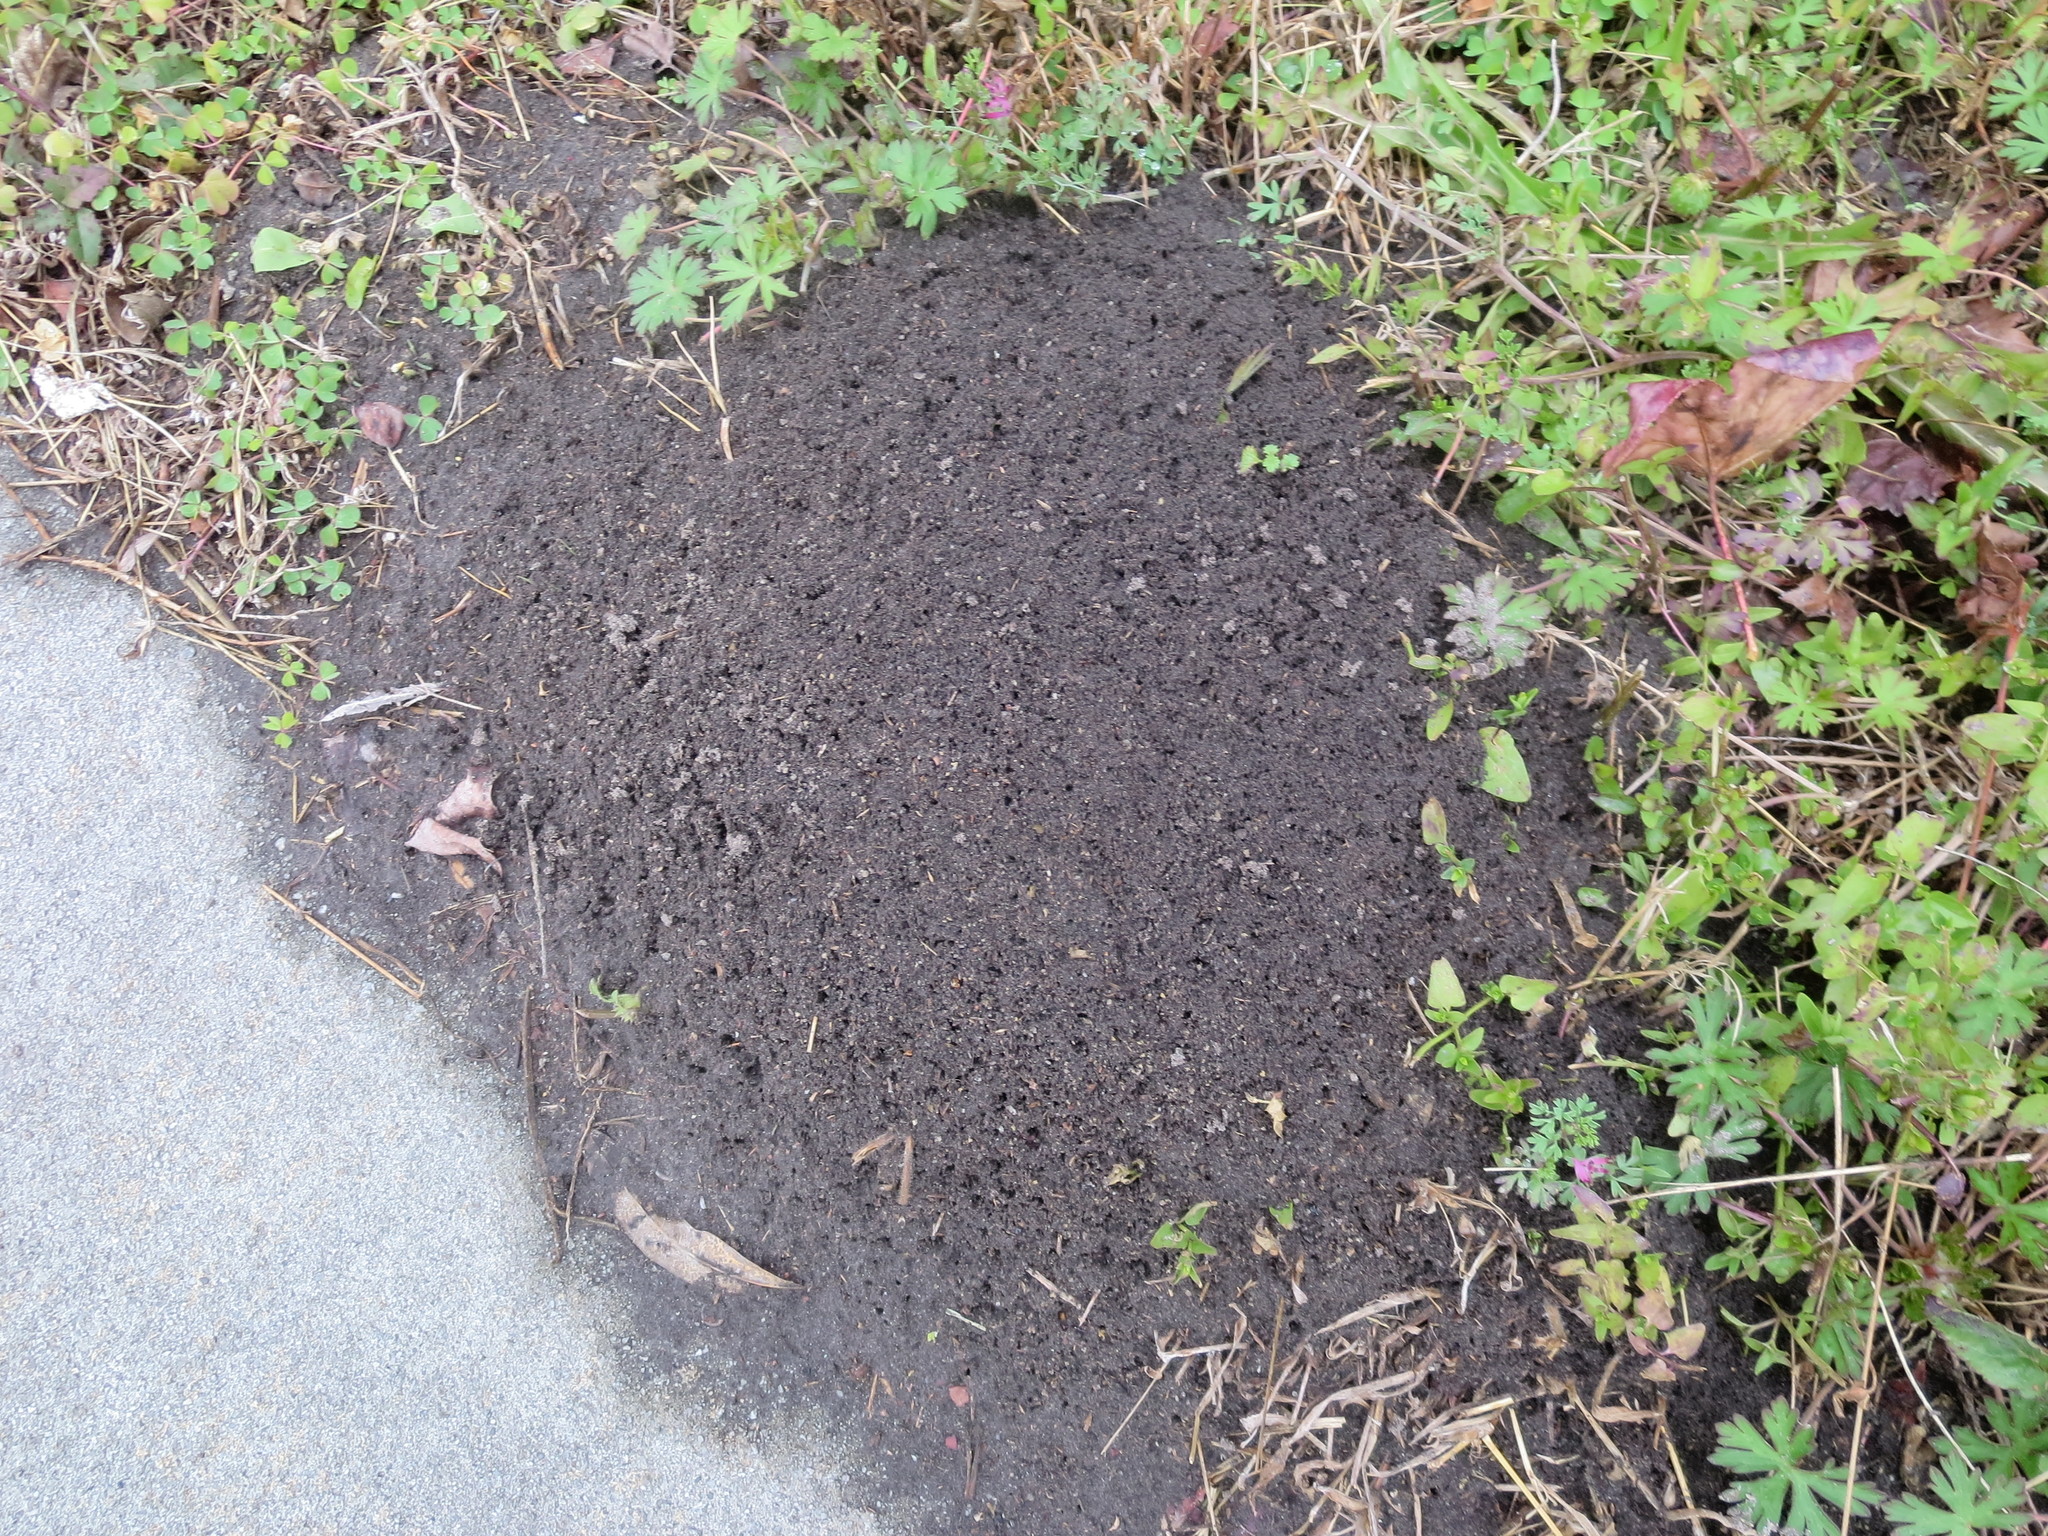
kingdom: Animalia
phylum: Arthropoda
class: Insecta
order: Hymenoptera
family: Formicidae
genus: Solenopsis
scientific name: Solenopsis invicta
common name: Red imported fire ant
